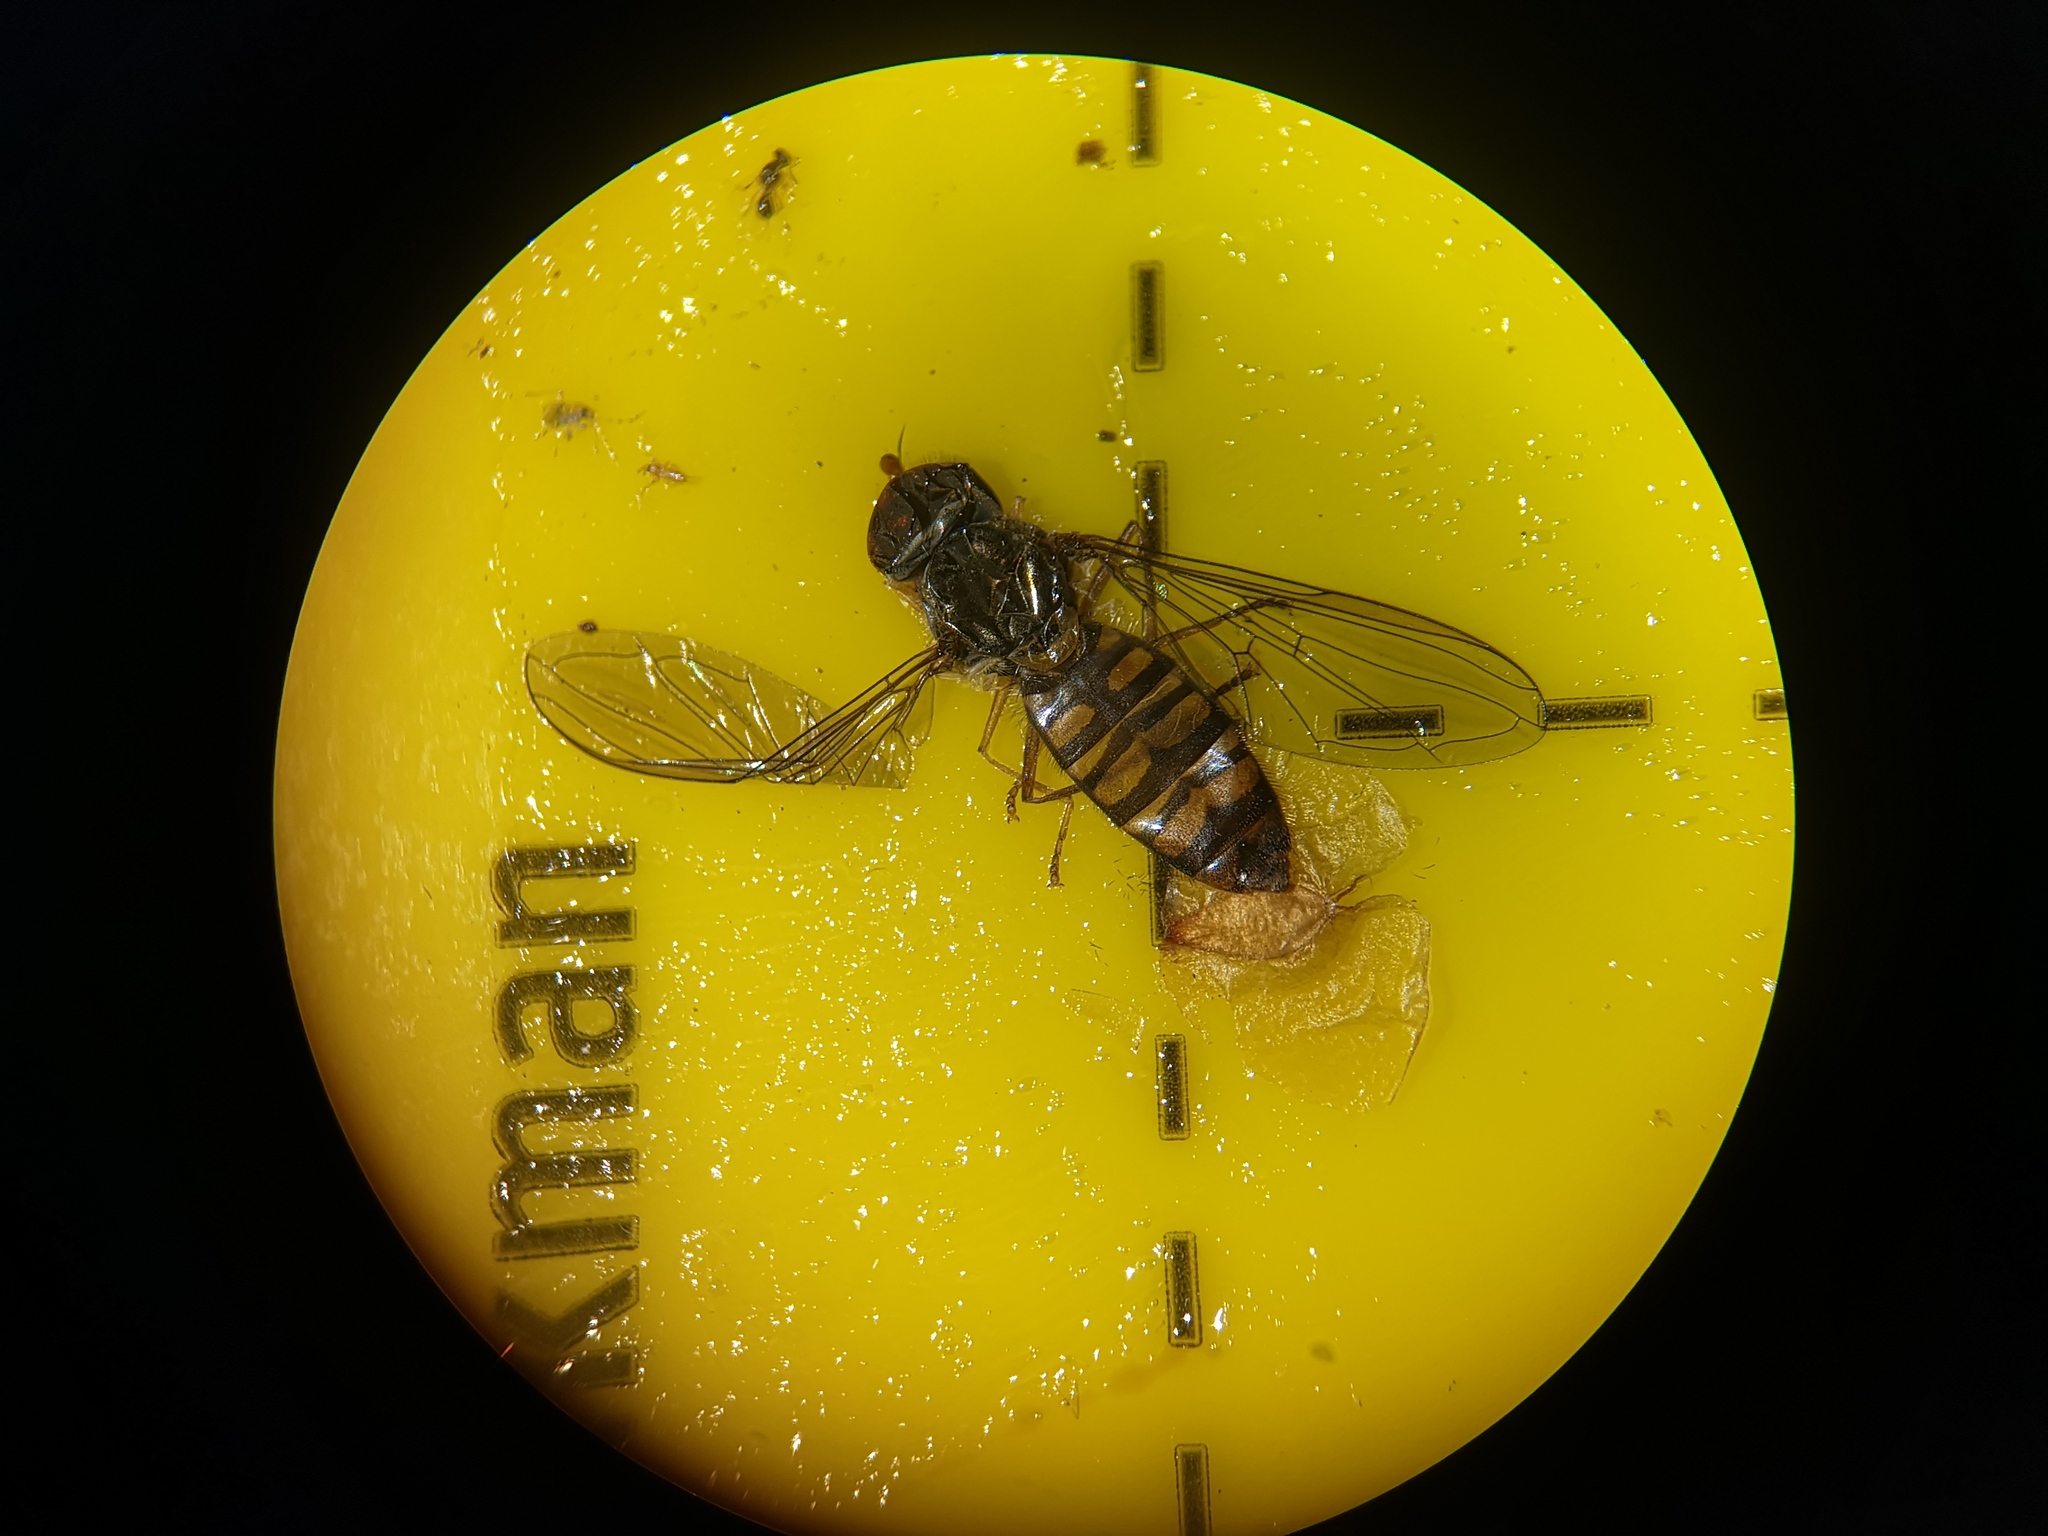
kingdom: Animalia
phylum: Arthropoda
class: Insecta
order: Diptera
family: Syrphidae
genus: Episyrphus
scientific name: Episyrphus balteatus
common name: Marmalade hoverfly
